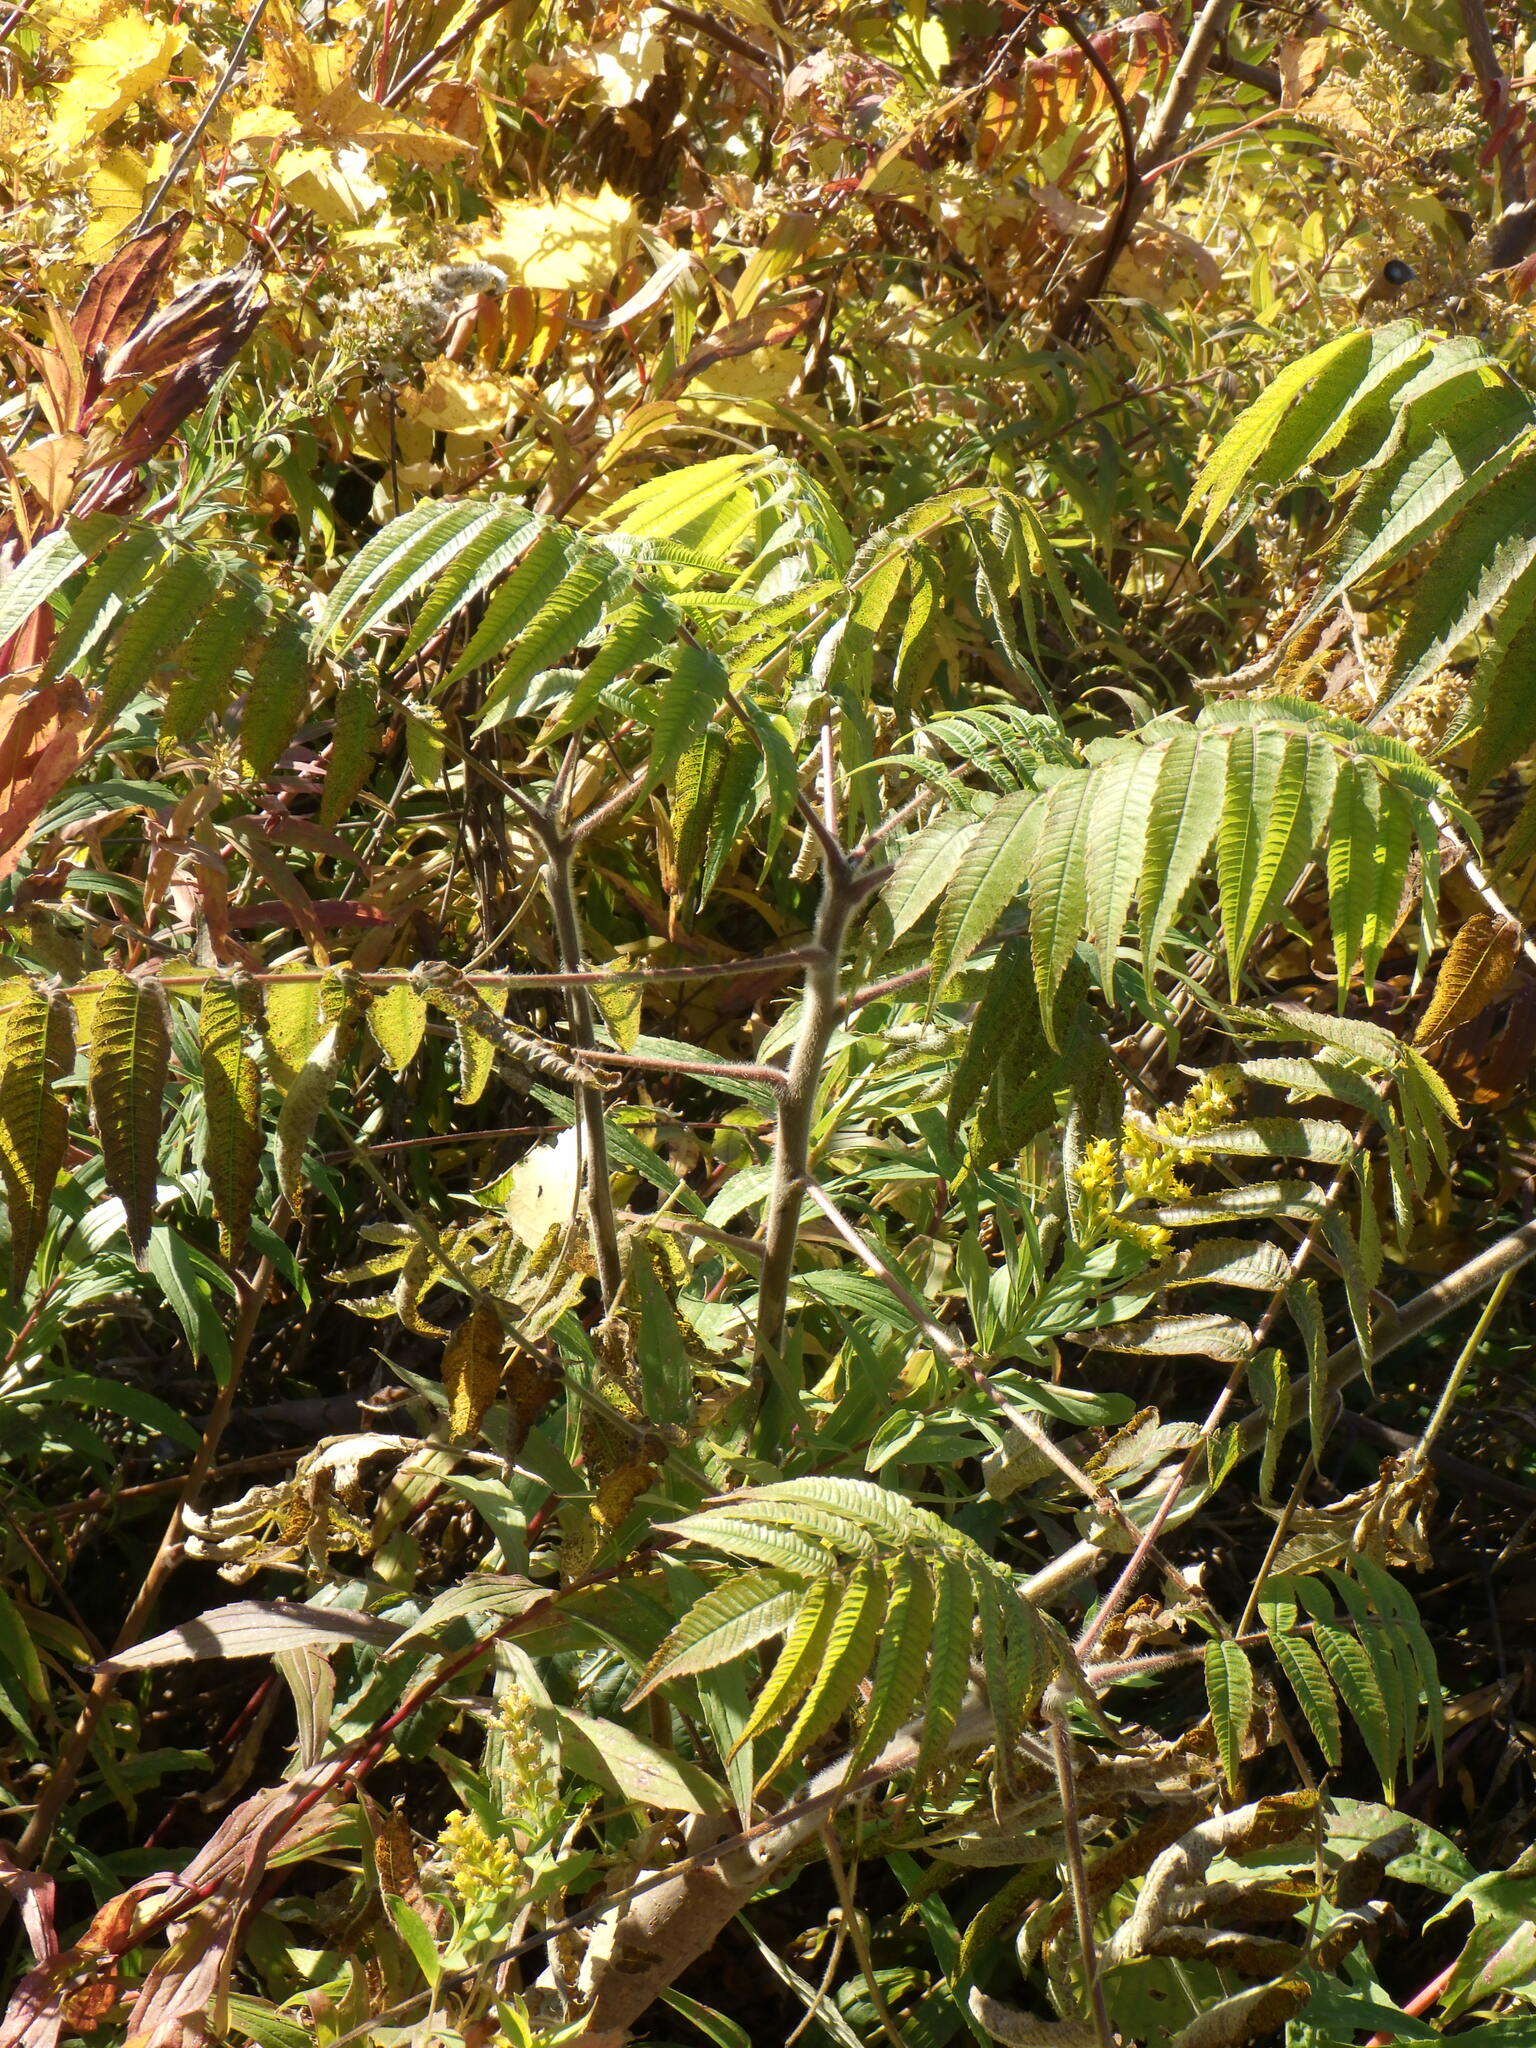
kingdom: Plantae
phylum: Tracheophyta
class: Magnoliopsida
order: Sapindales
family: Anacardiaceae
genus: Rhus
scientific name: Rhus typhina
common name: Staghorn sumac
